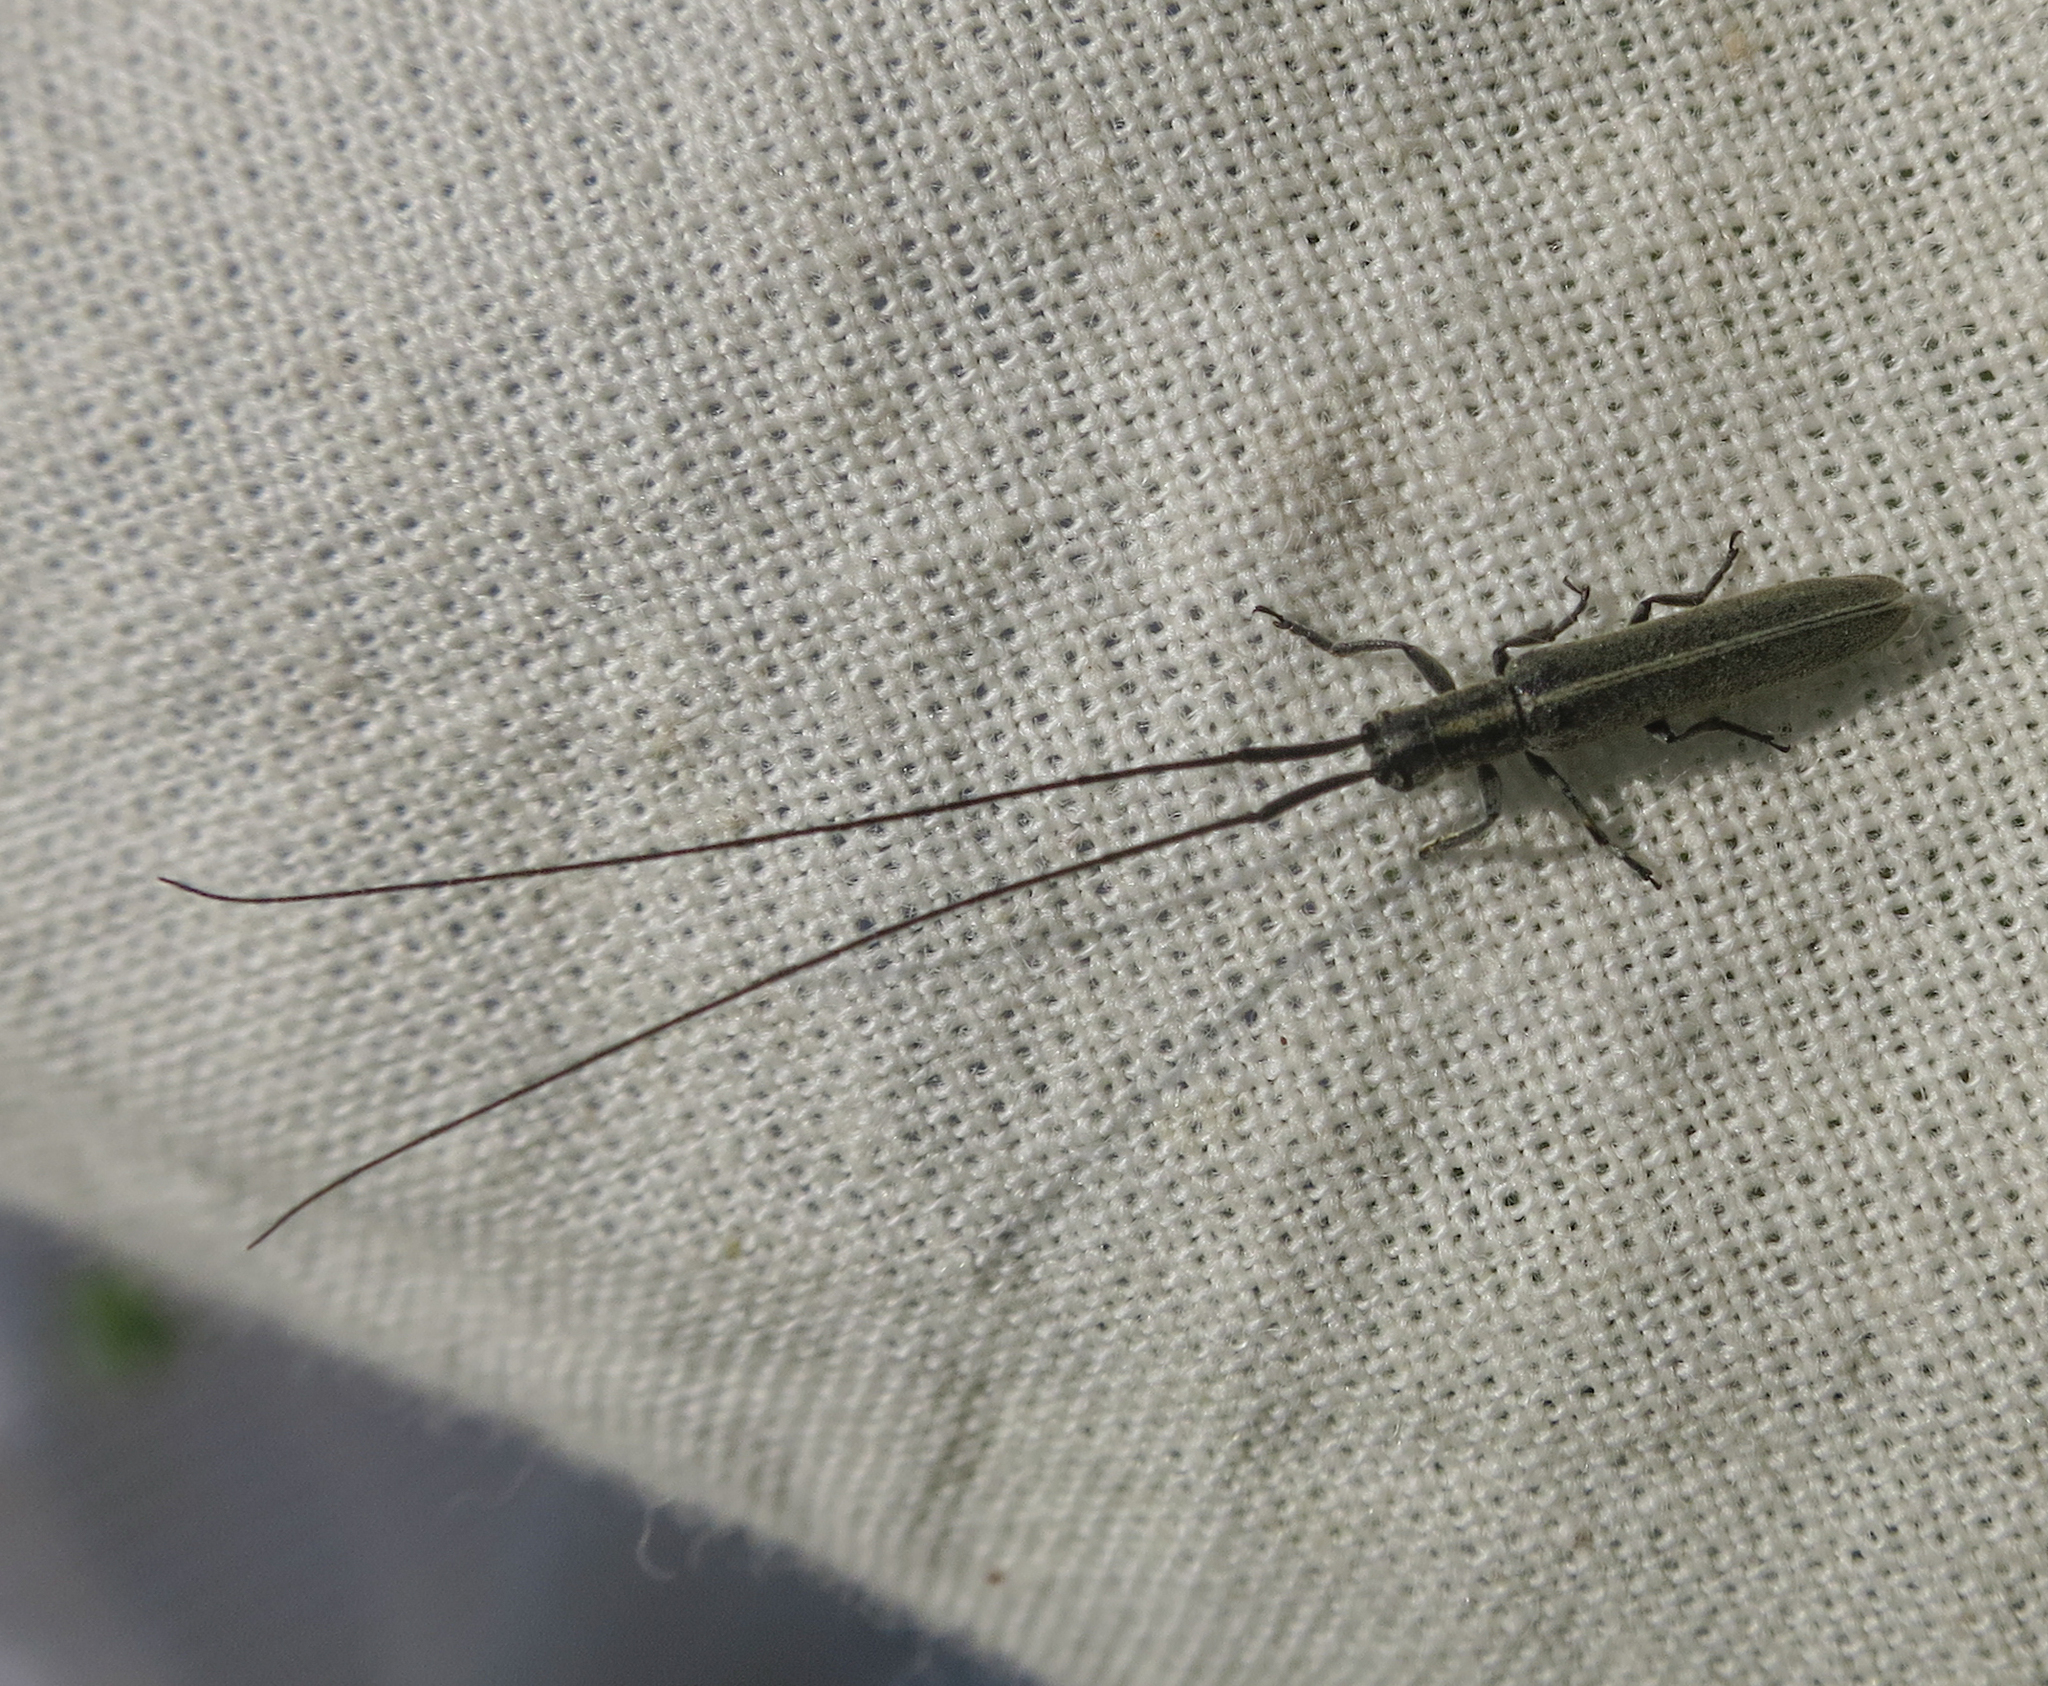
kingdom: Animalia
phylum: Arthropoda
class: Insecta
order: Coleoptera
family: Cerambycidae
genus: Calamobius
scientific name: Calamobius filum
